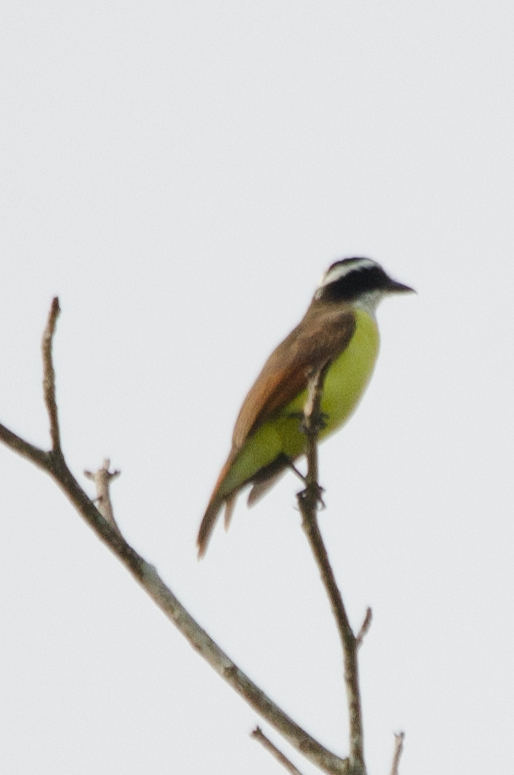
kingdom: Animalia
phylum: Chordata
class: Aves
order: Passeriformes
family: Tyrannidae
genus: Pitangus
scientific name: Pitangus sulphuratus
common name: Great kiskadee
